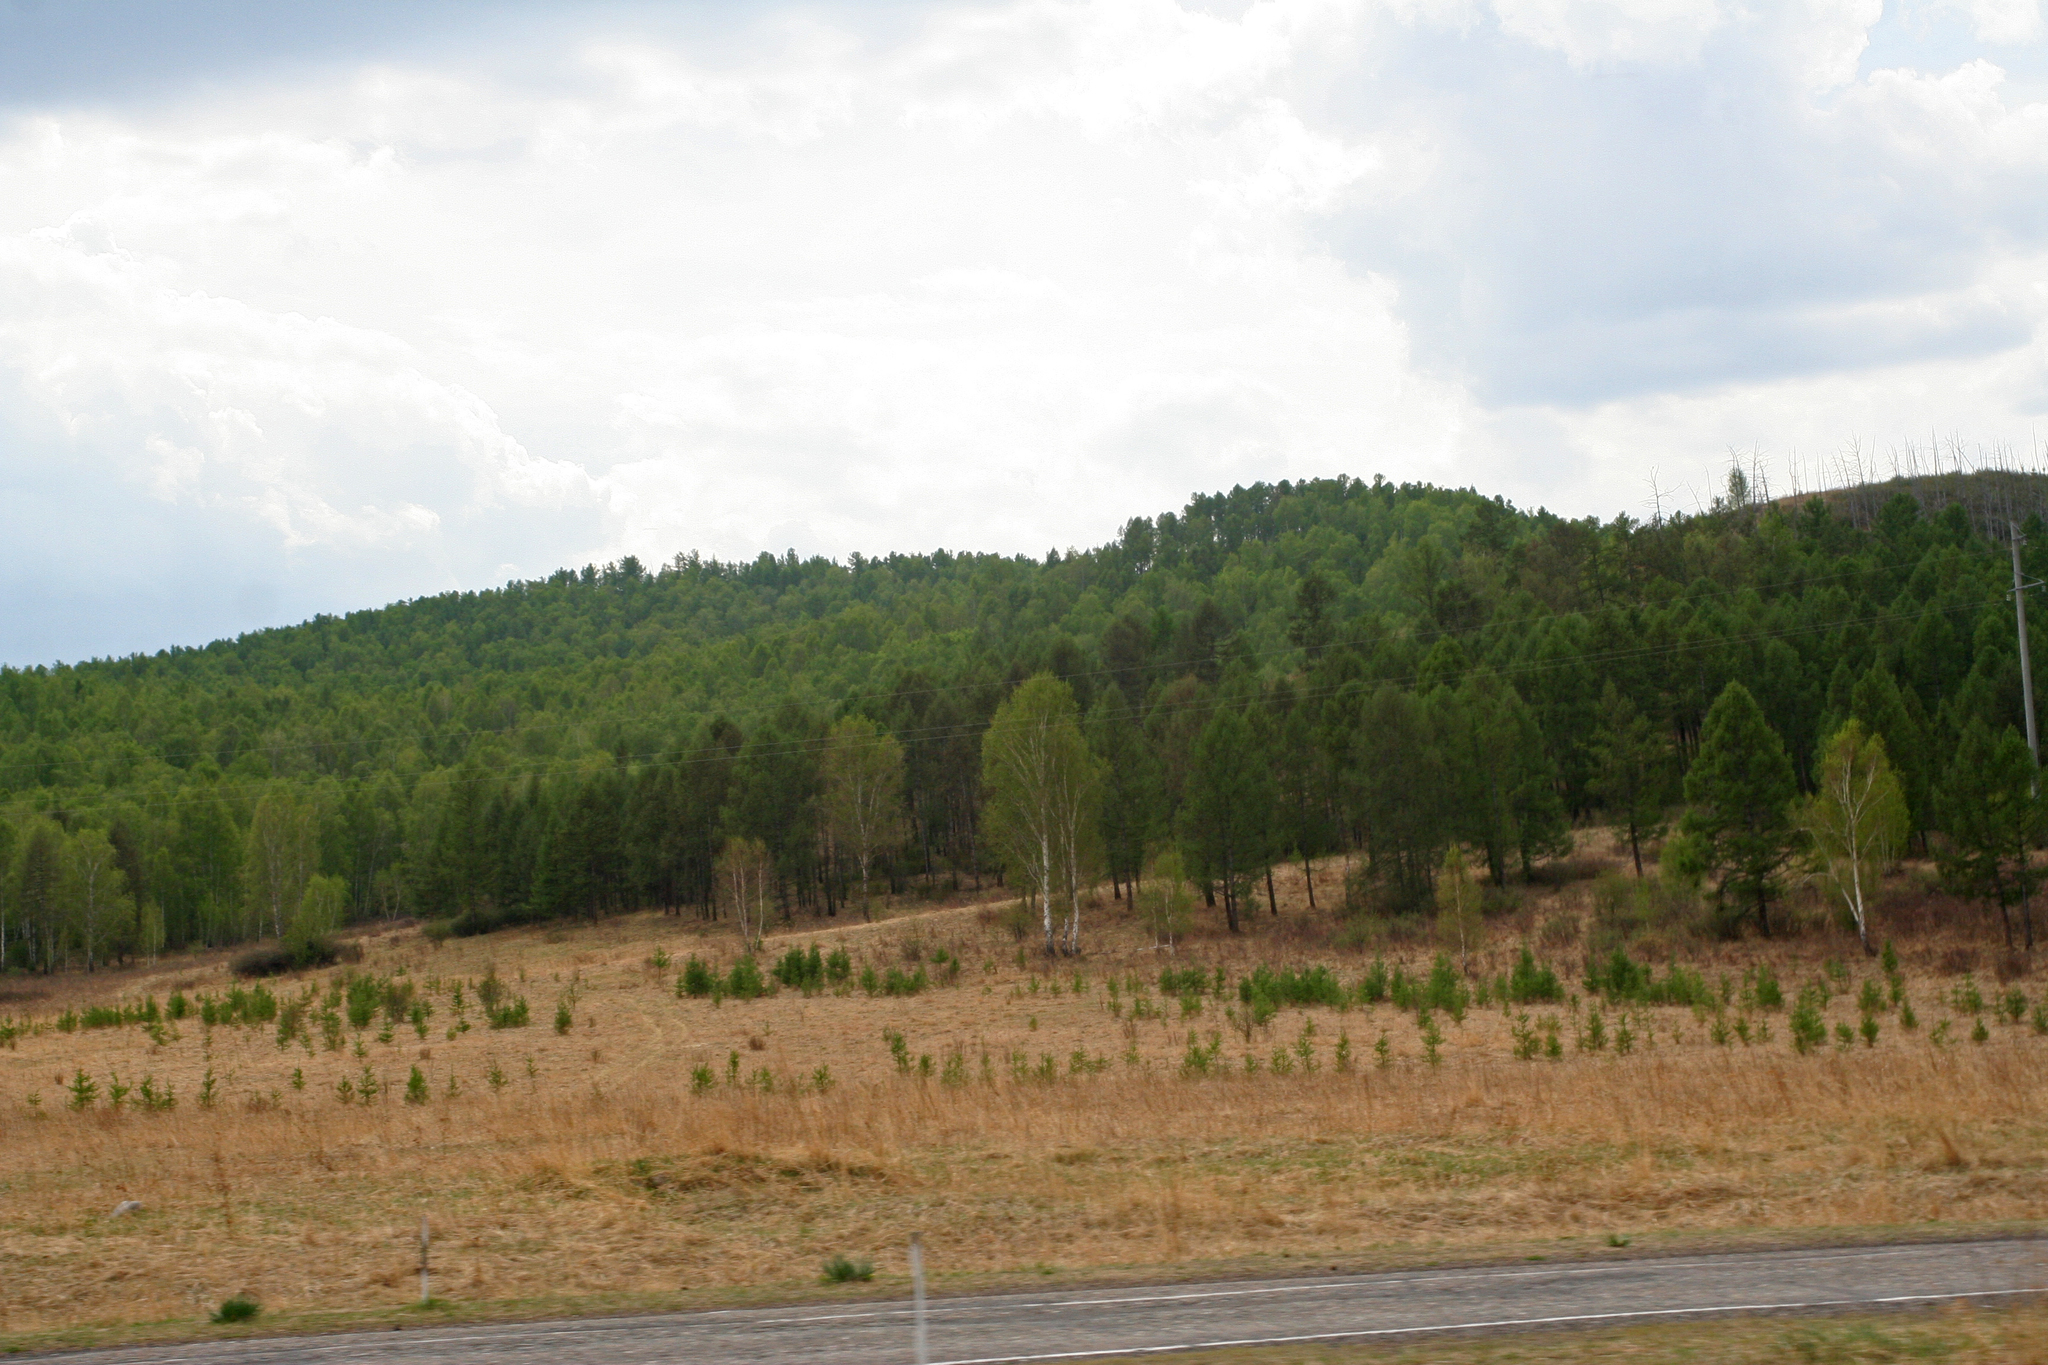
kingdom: Plantae
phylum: Tracheophyta
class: Pinopsida
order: Pinales
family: Pinaceae
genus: Larix
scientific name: Larix sibirica
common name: Siberian larch
